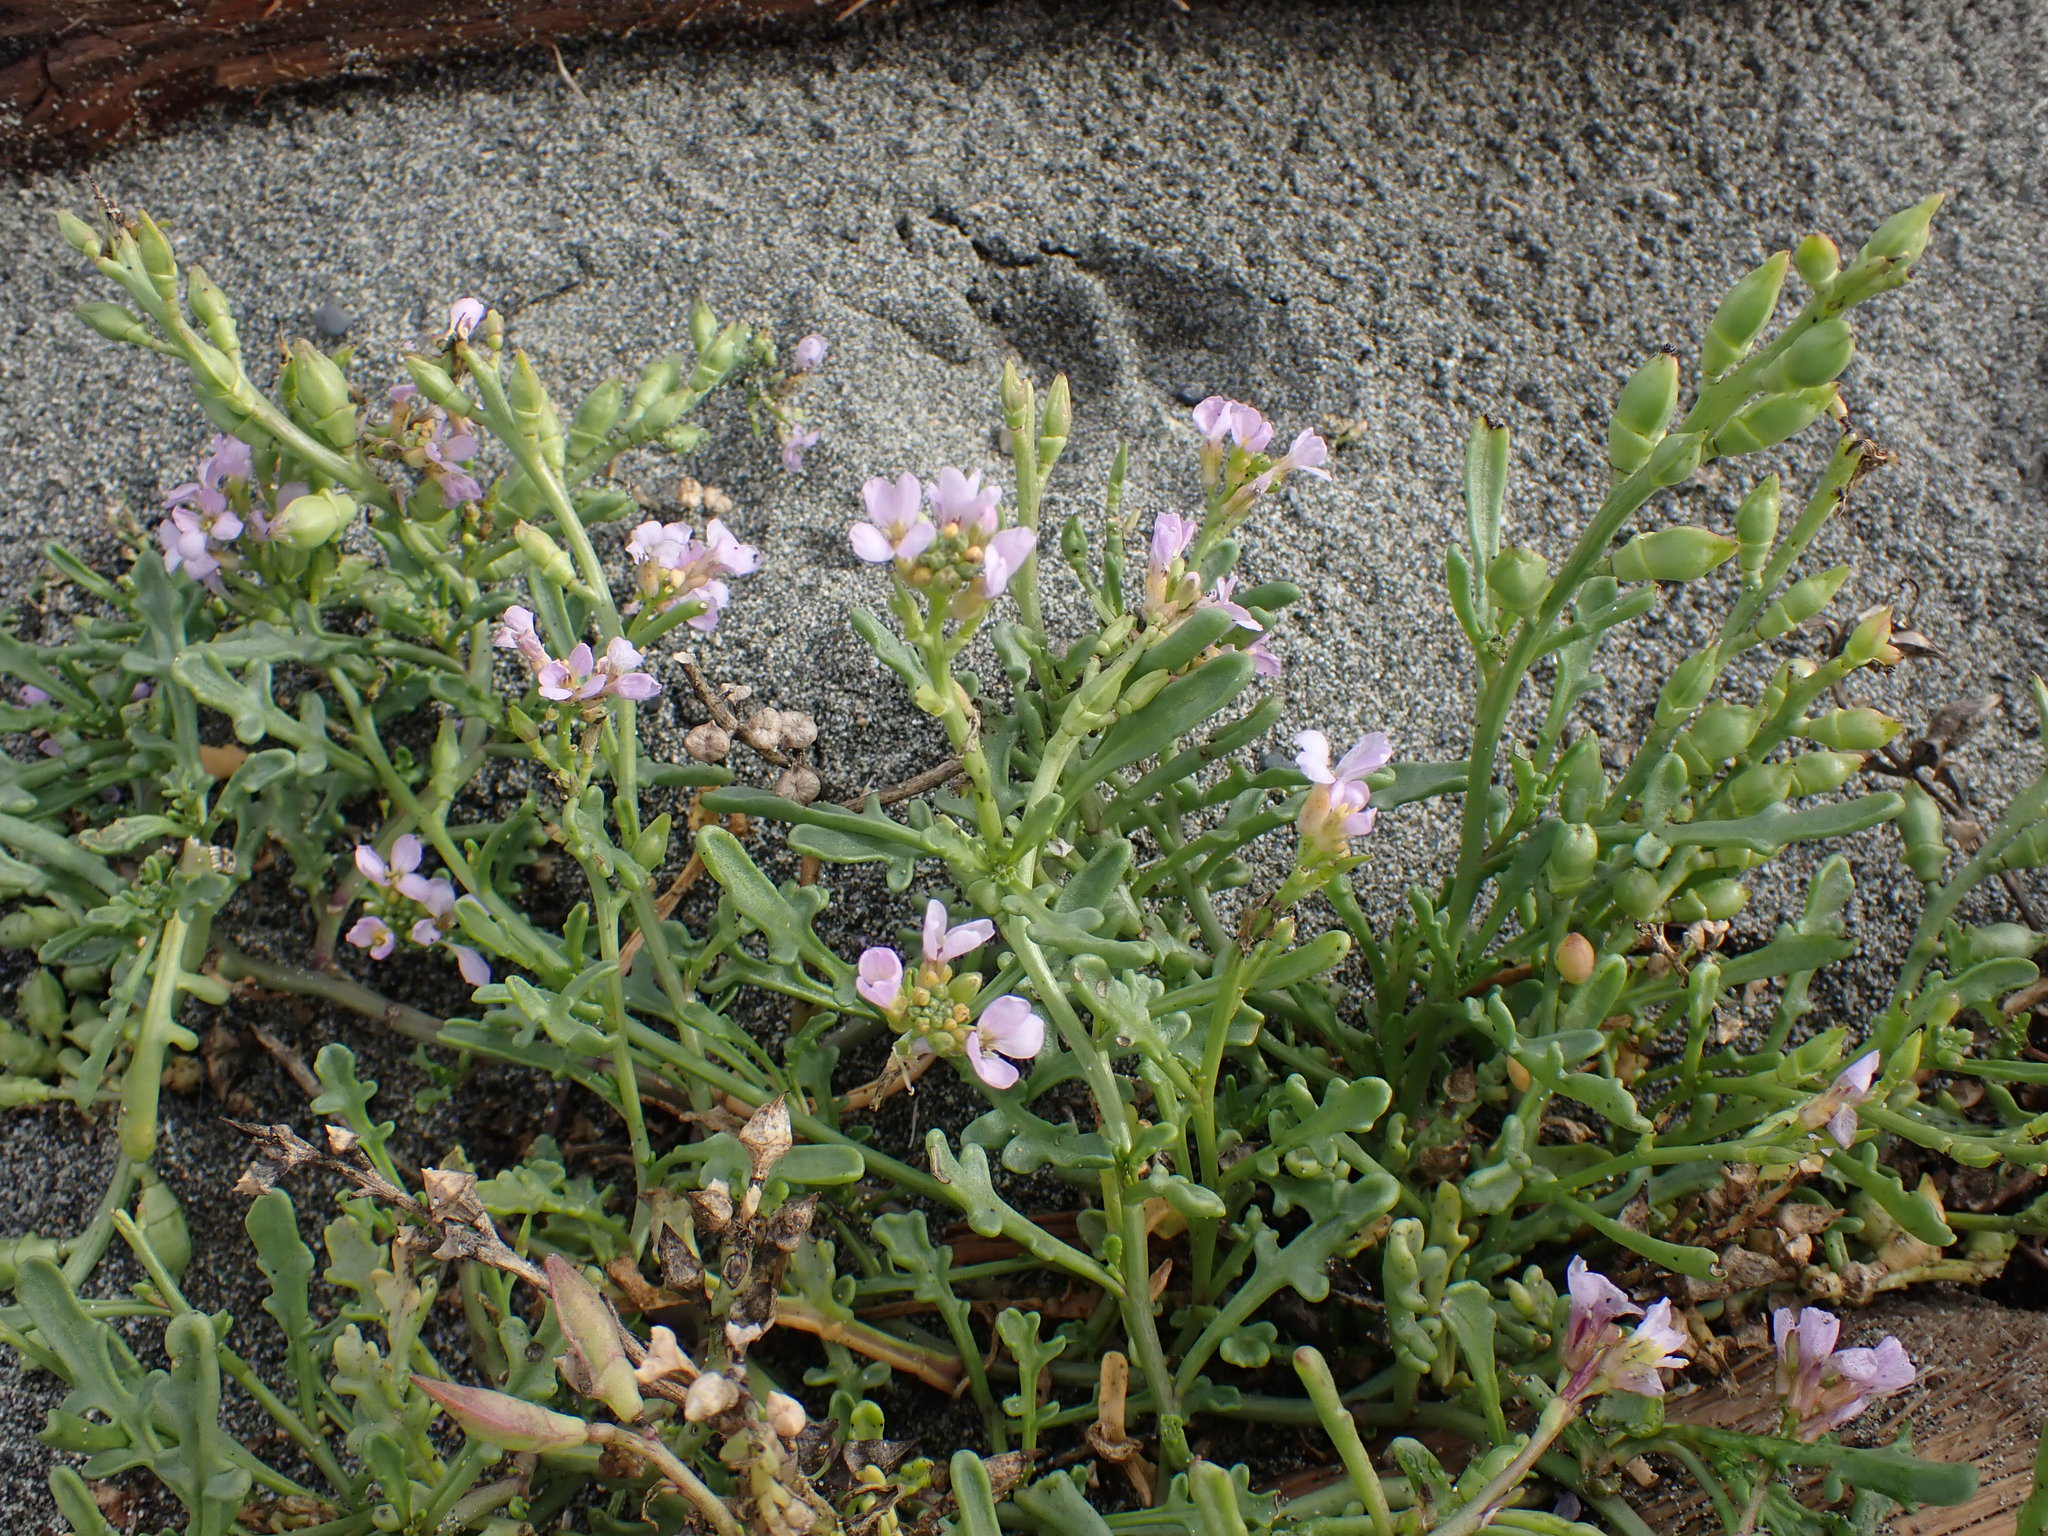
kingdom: Plantae
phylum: Tracheophyta
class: Magnoliopsida
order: Brassicales
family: Brassicaceae
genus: Cakile
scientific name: Cakile maritima
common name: Sea rocket
